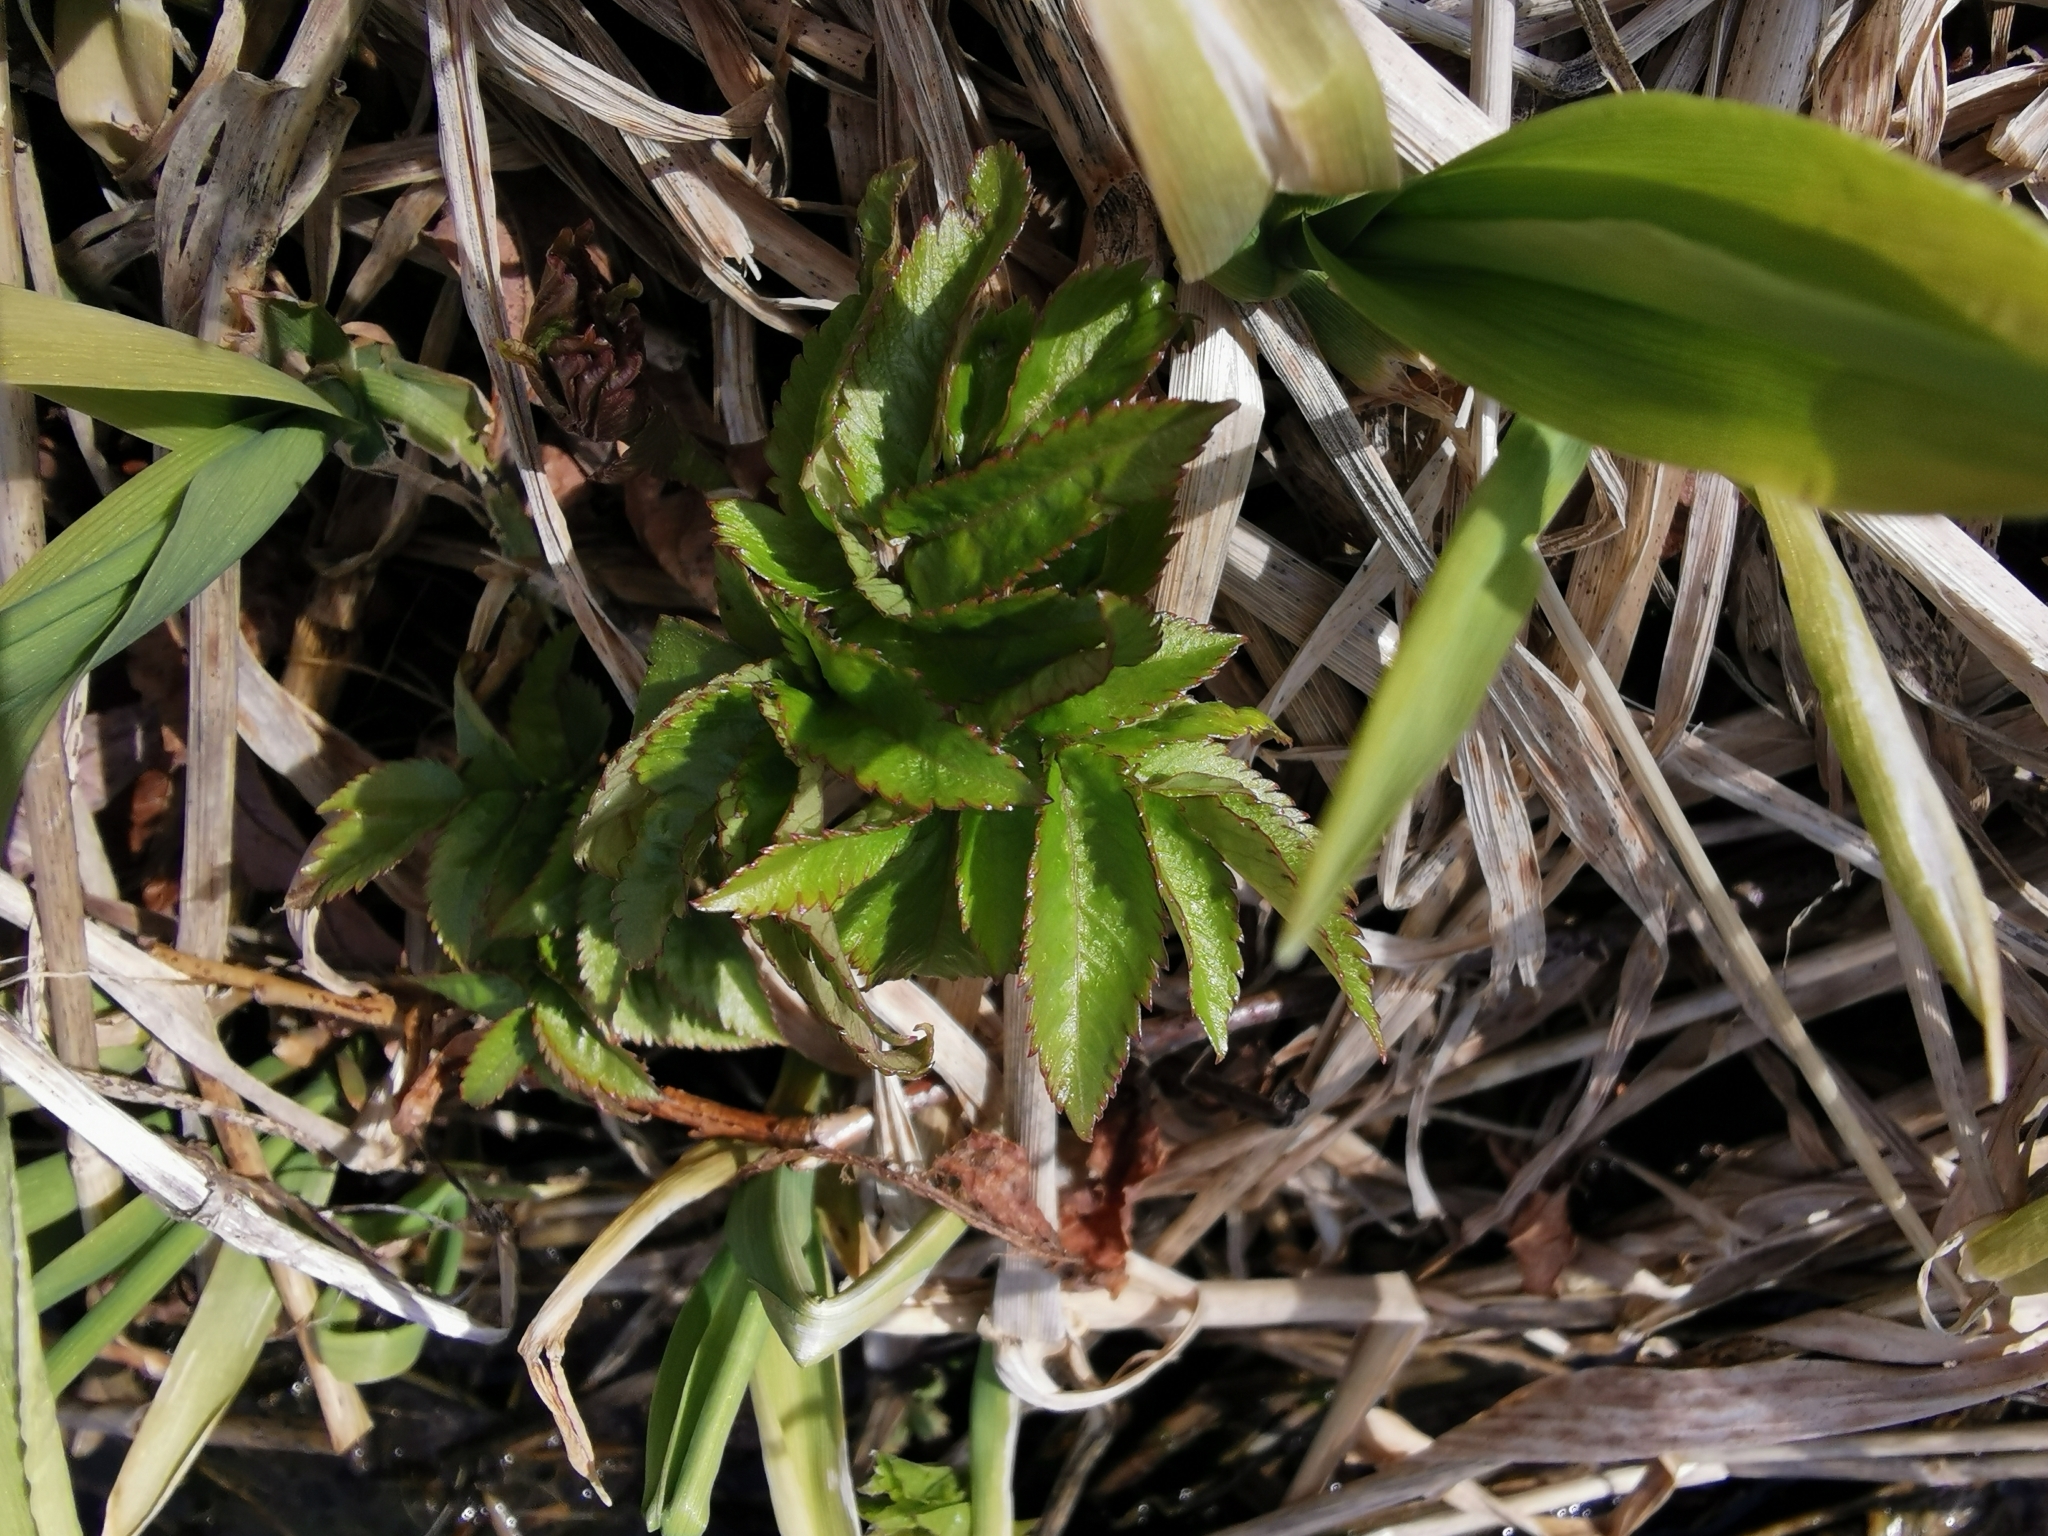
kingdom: Plantae
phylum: Tracheophyta
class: Magnoliopsida
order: Apiales
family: Apiaceae
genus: Angelica
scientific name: Angelica genuflexa
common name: Kneeling angelica
